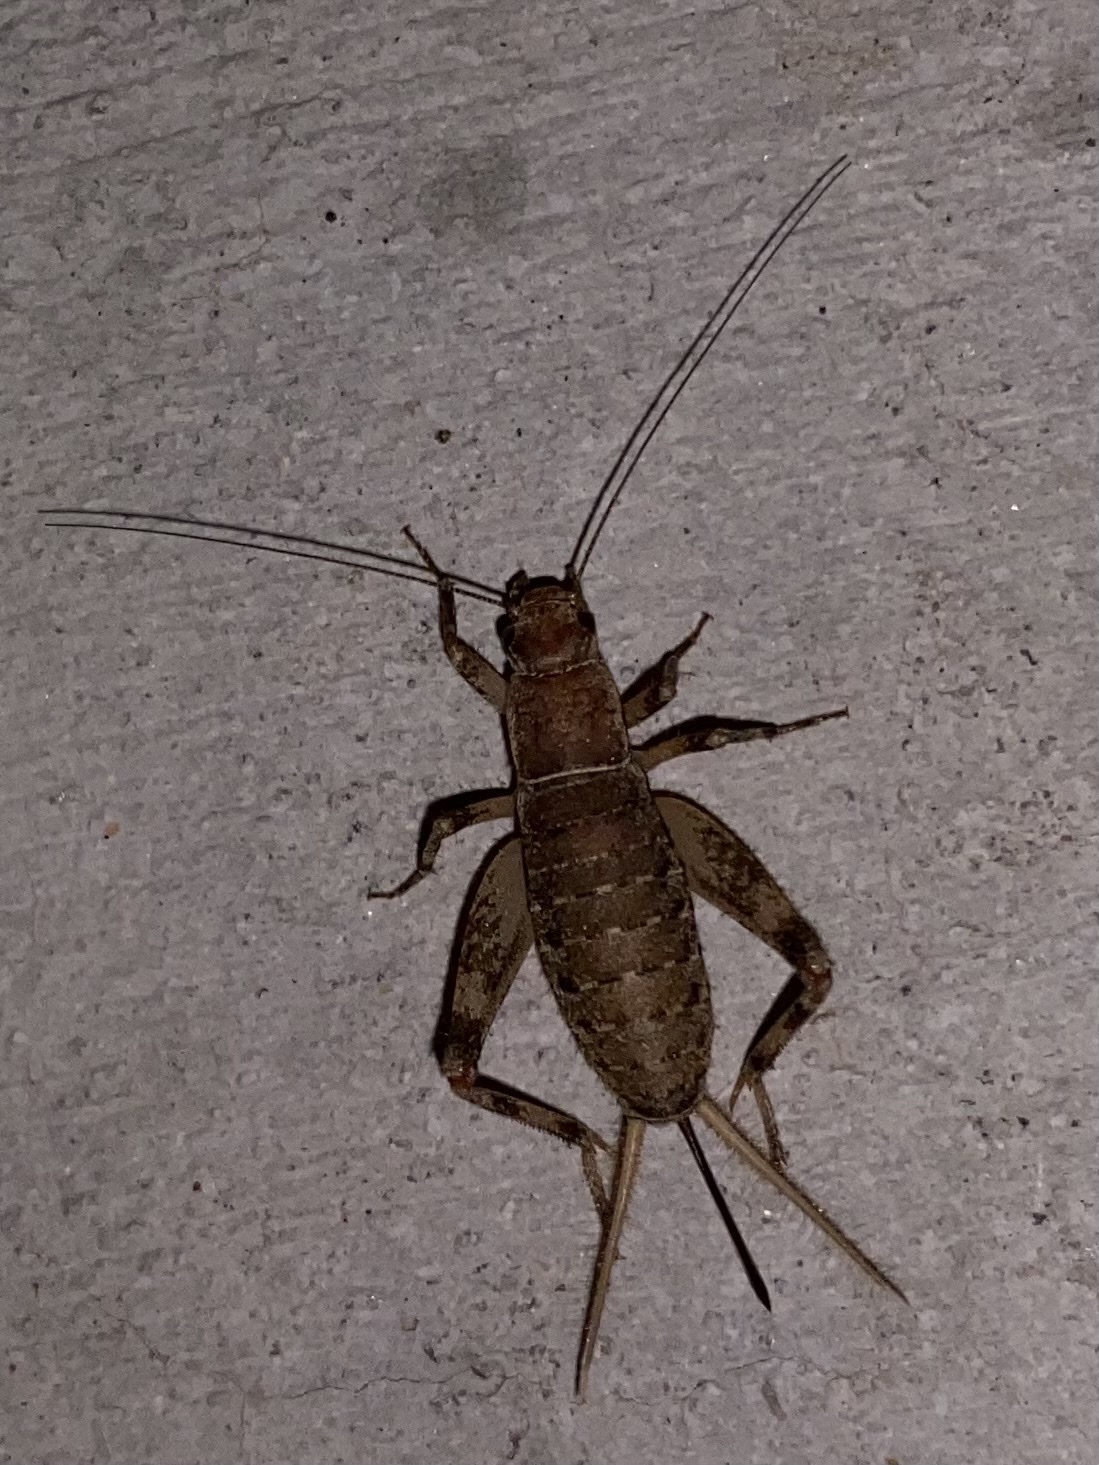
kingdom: Animalia
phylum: Arthropoda
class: Insecta
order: Orthoptera
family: Mogoplistidae
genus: Hoplosphyrum
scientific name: Hoplosphyrum boreale
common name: Long-winged scaly cricket
